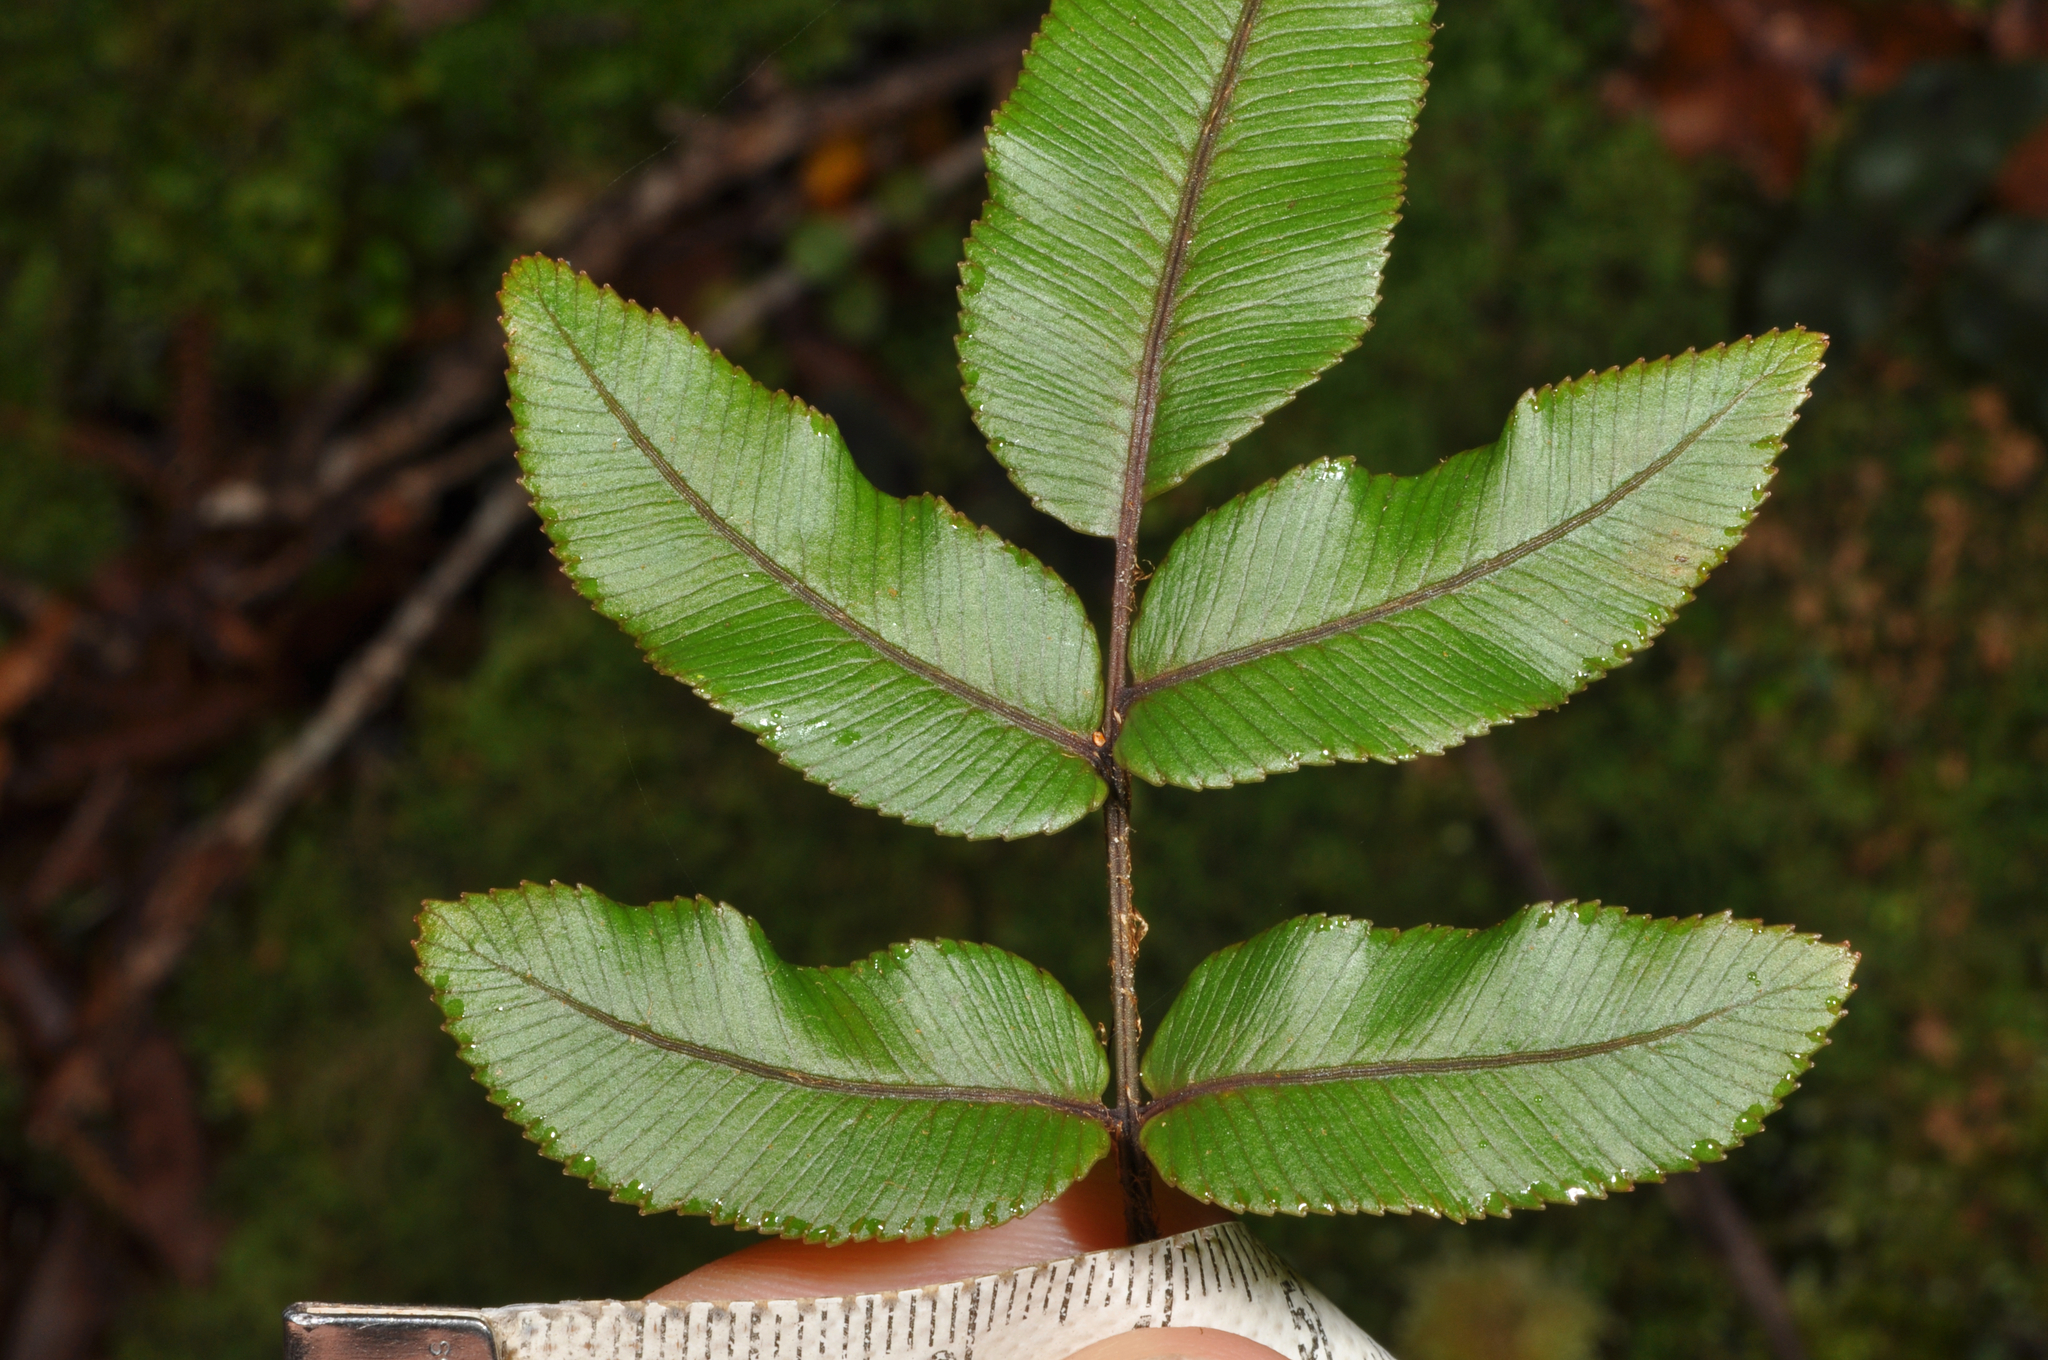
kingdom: Plantae
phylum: Tracheophyta
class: Polypodiopsida
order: Polypodiales
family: Blechnaceae
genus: Parablechnum
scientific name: Parablechnum procerum
